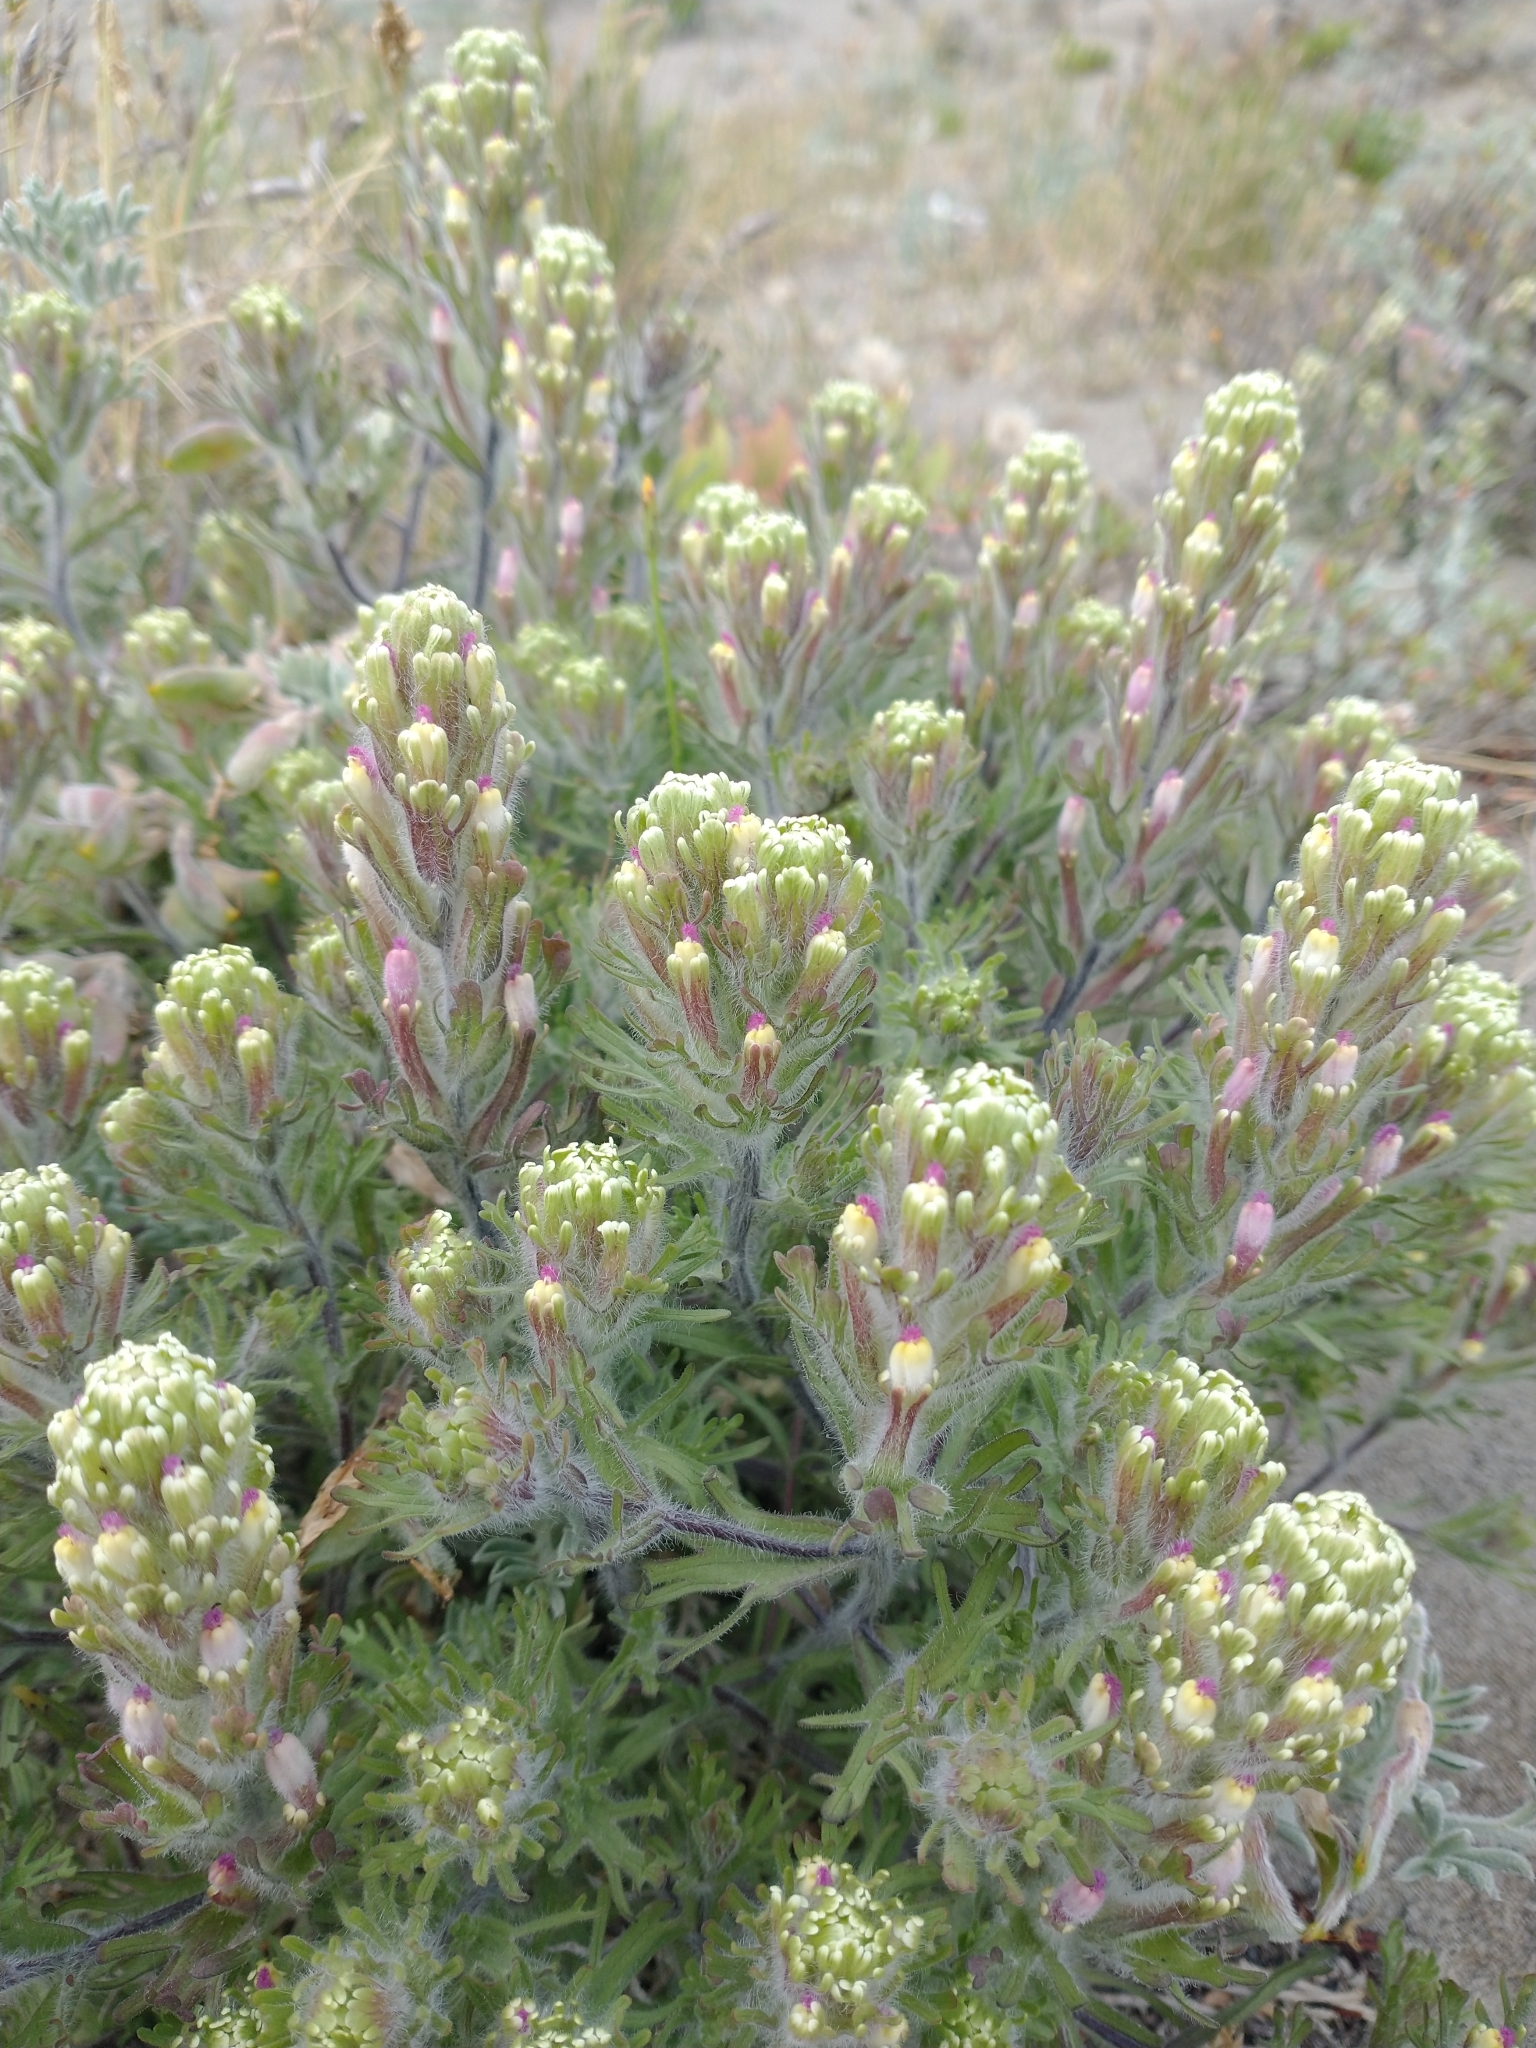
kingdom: Plantae
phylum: Tracheophyta
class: Magnoliopsida
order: Lamiales
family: Orobanchaceae
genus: Castilleja
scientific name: Castilleja exserta
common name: Purple owl-clover
